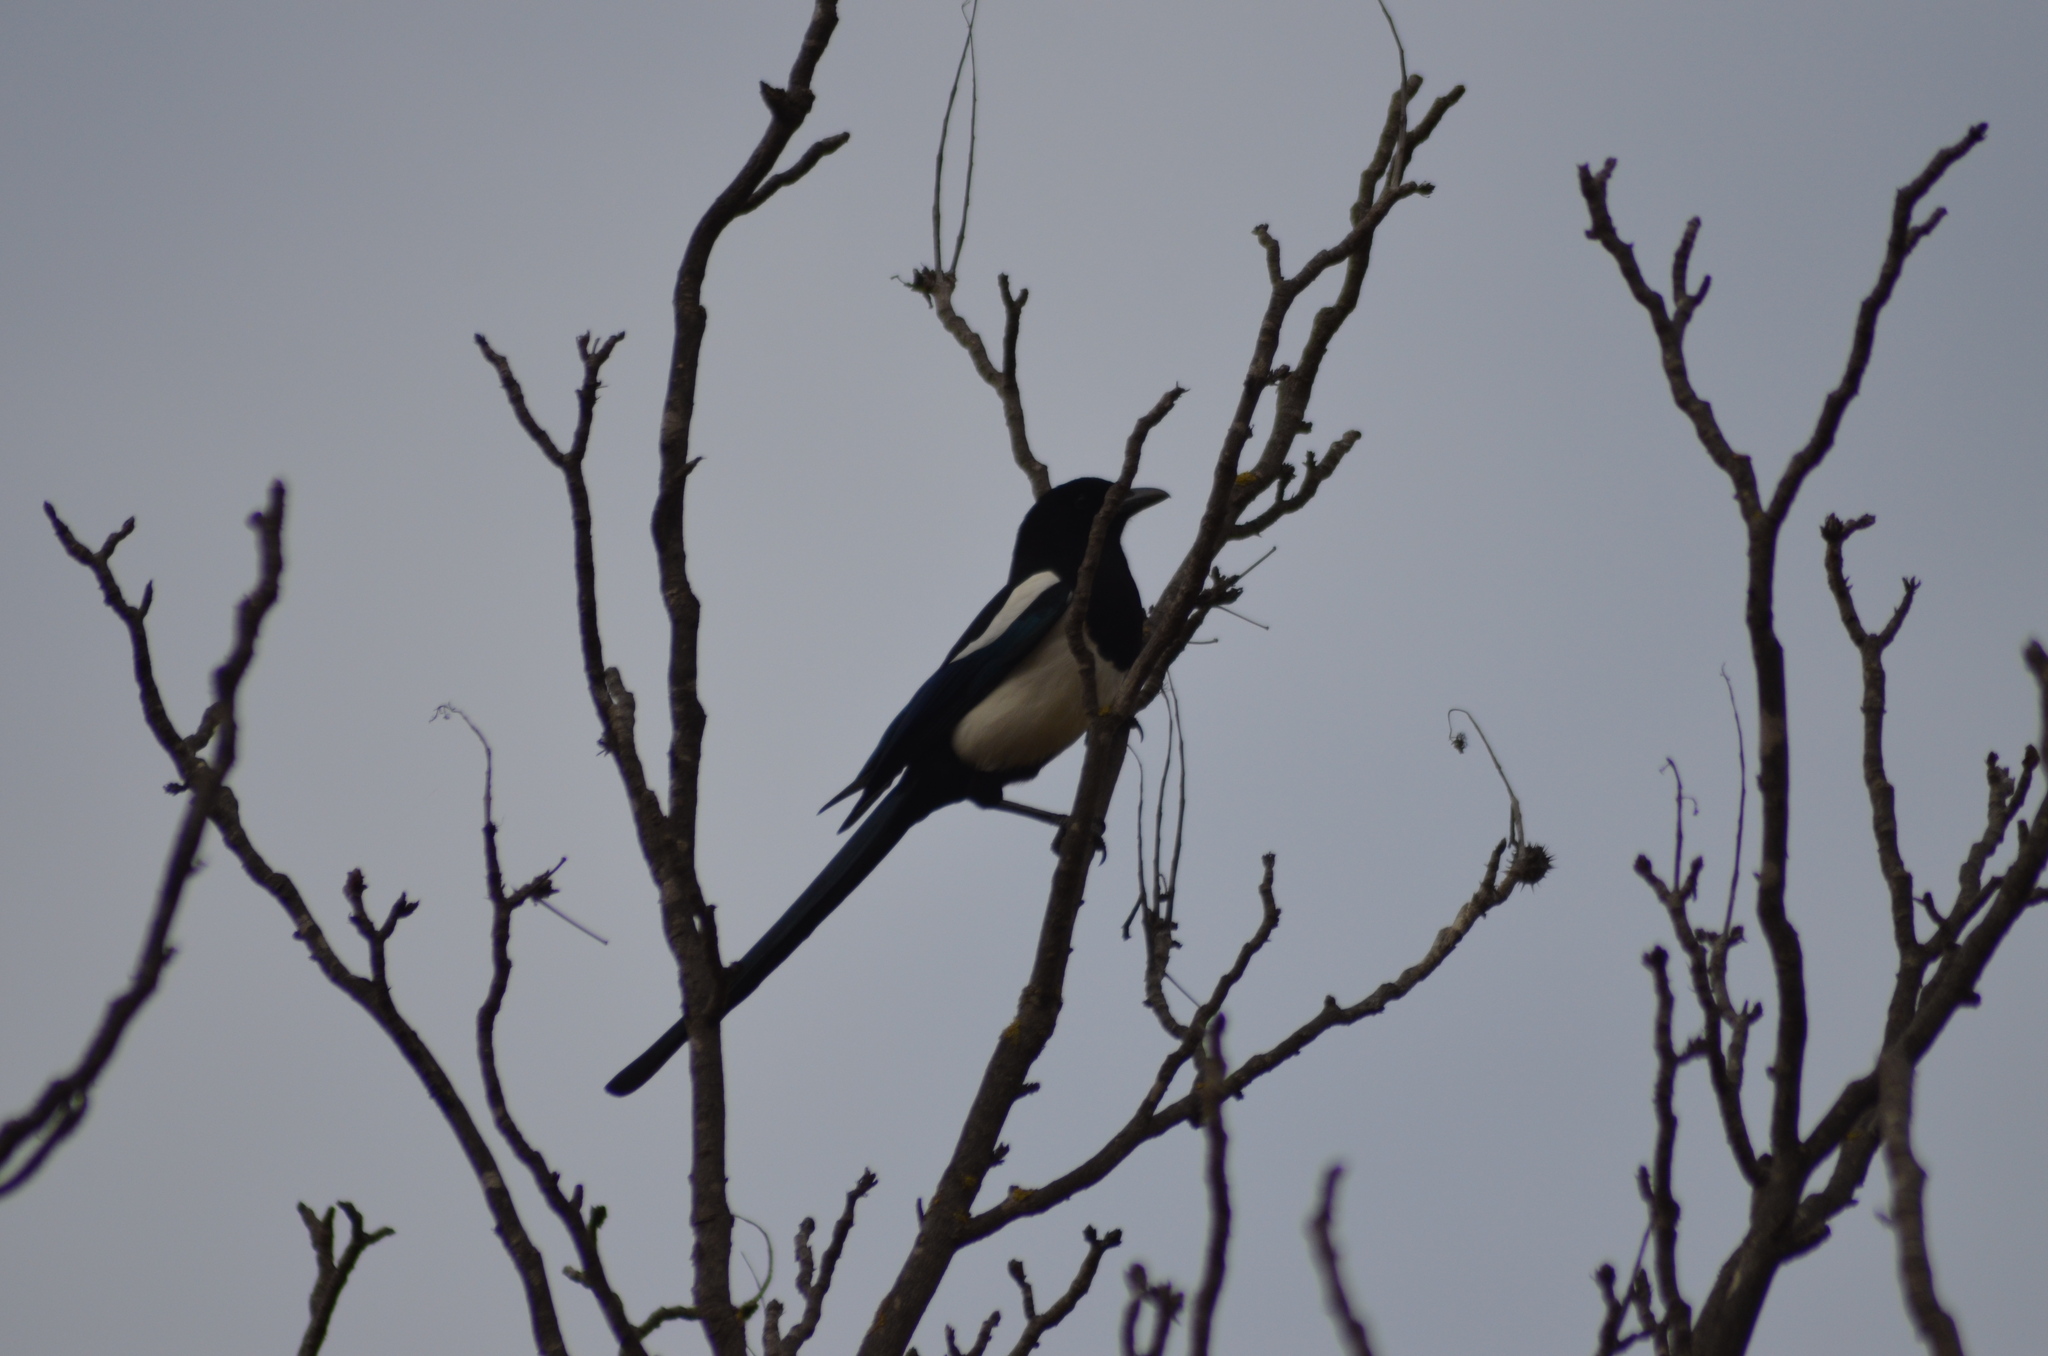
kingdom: Animalia
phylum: Chordata
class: Aves
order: Passeriformes
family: Corvidae
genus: Pica
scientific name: Pica pica
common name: Eurasian magpie
